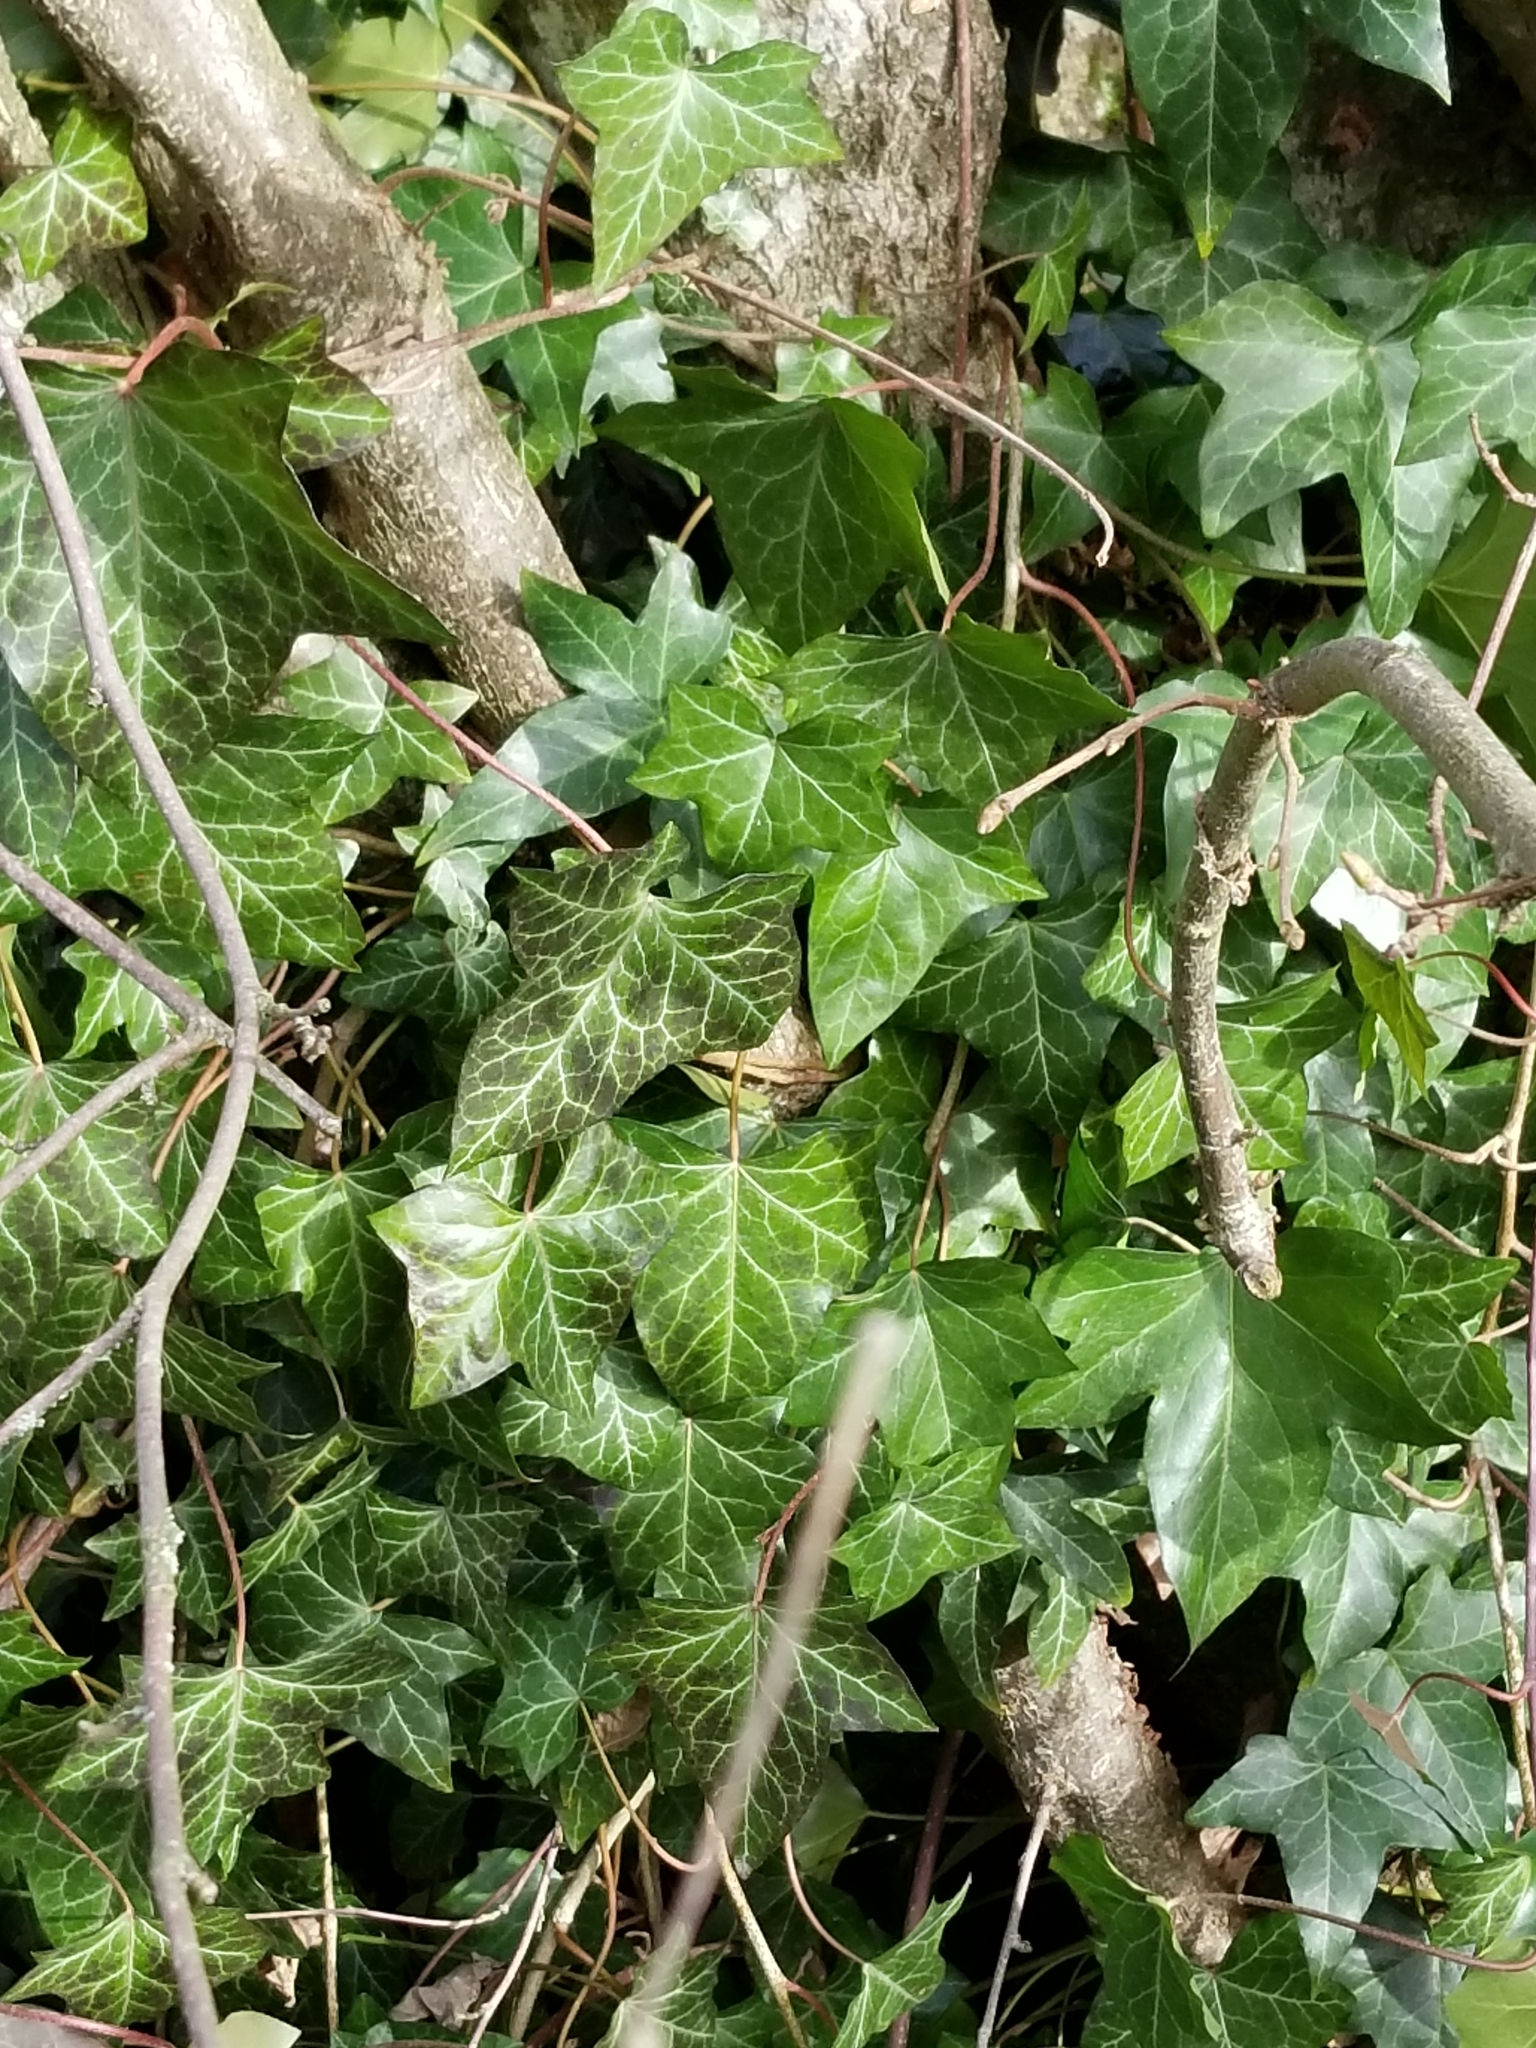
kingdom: Plantae
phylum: Tracheophyta
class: Magnoliopsida
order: Apiales
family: Araliaceae
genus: Hedera
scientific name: Hedera helix
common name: Ivy
